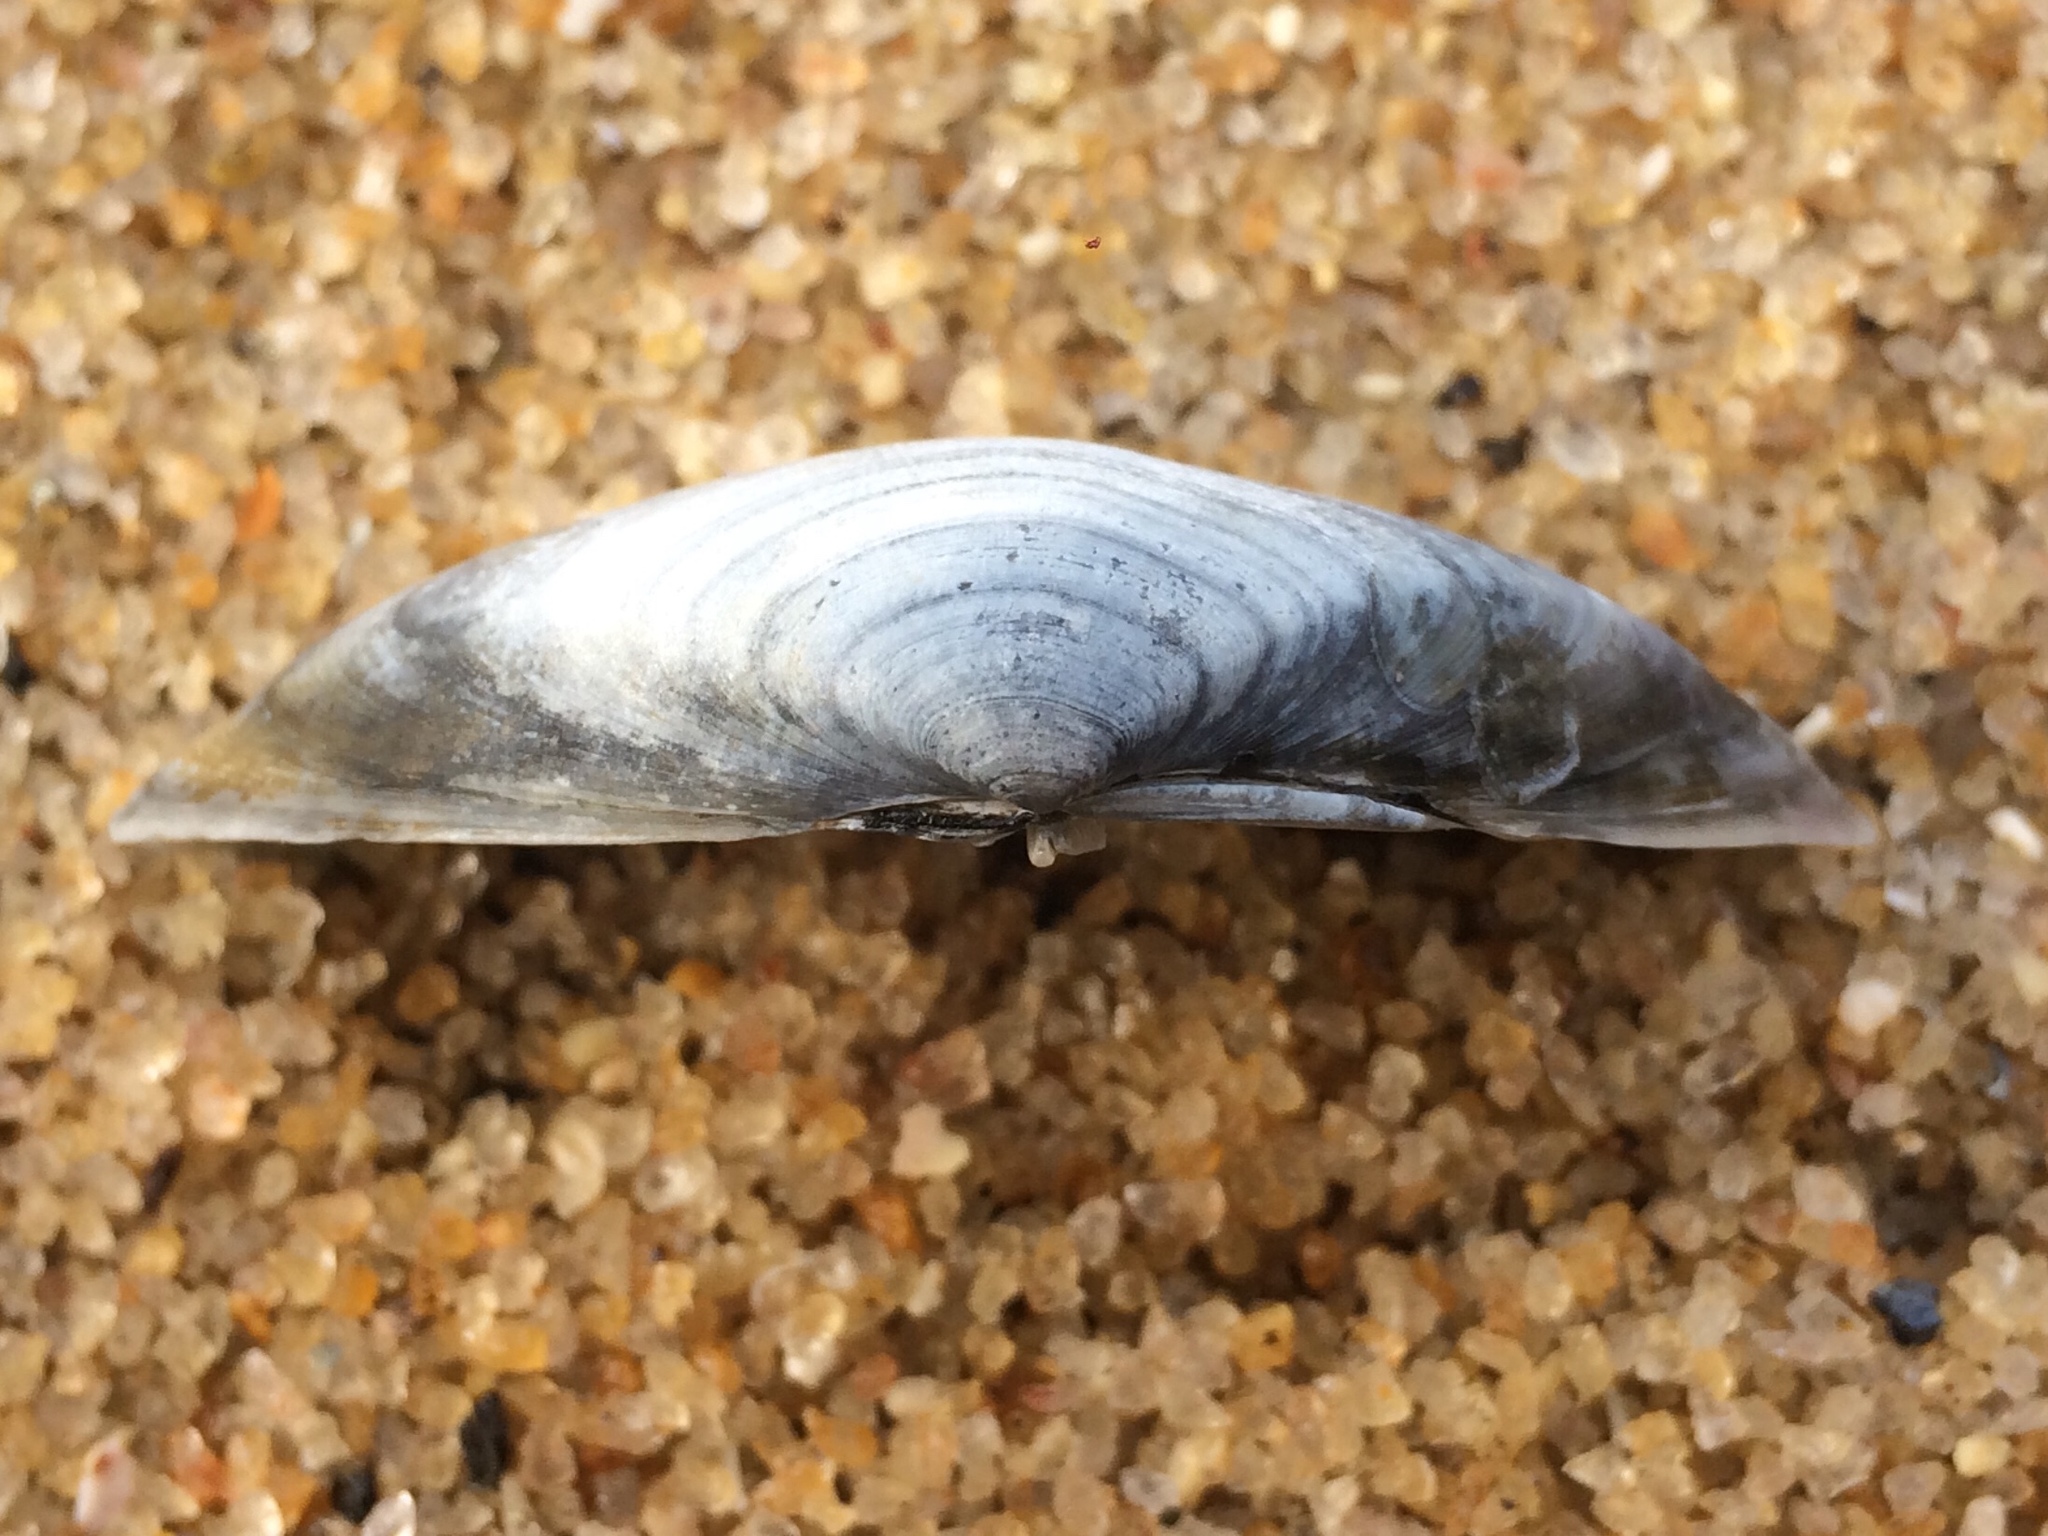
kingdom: Animalia
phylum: Mollusca
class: Bivalvia
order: Cardiida
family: Donacidae
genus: Iphigenia
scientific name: Iphigenia brasiliensis
